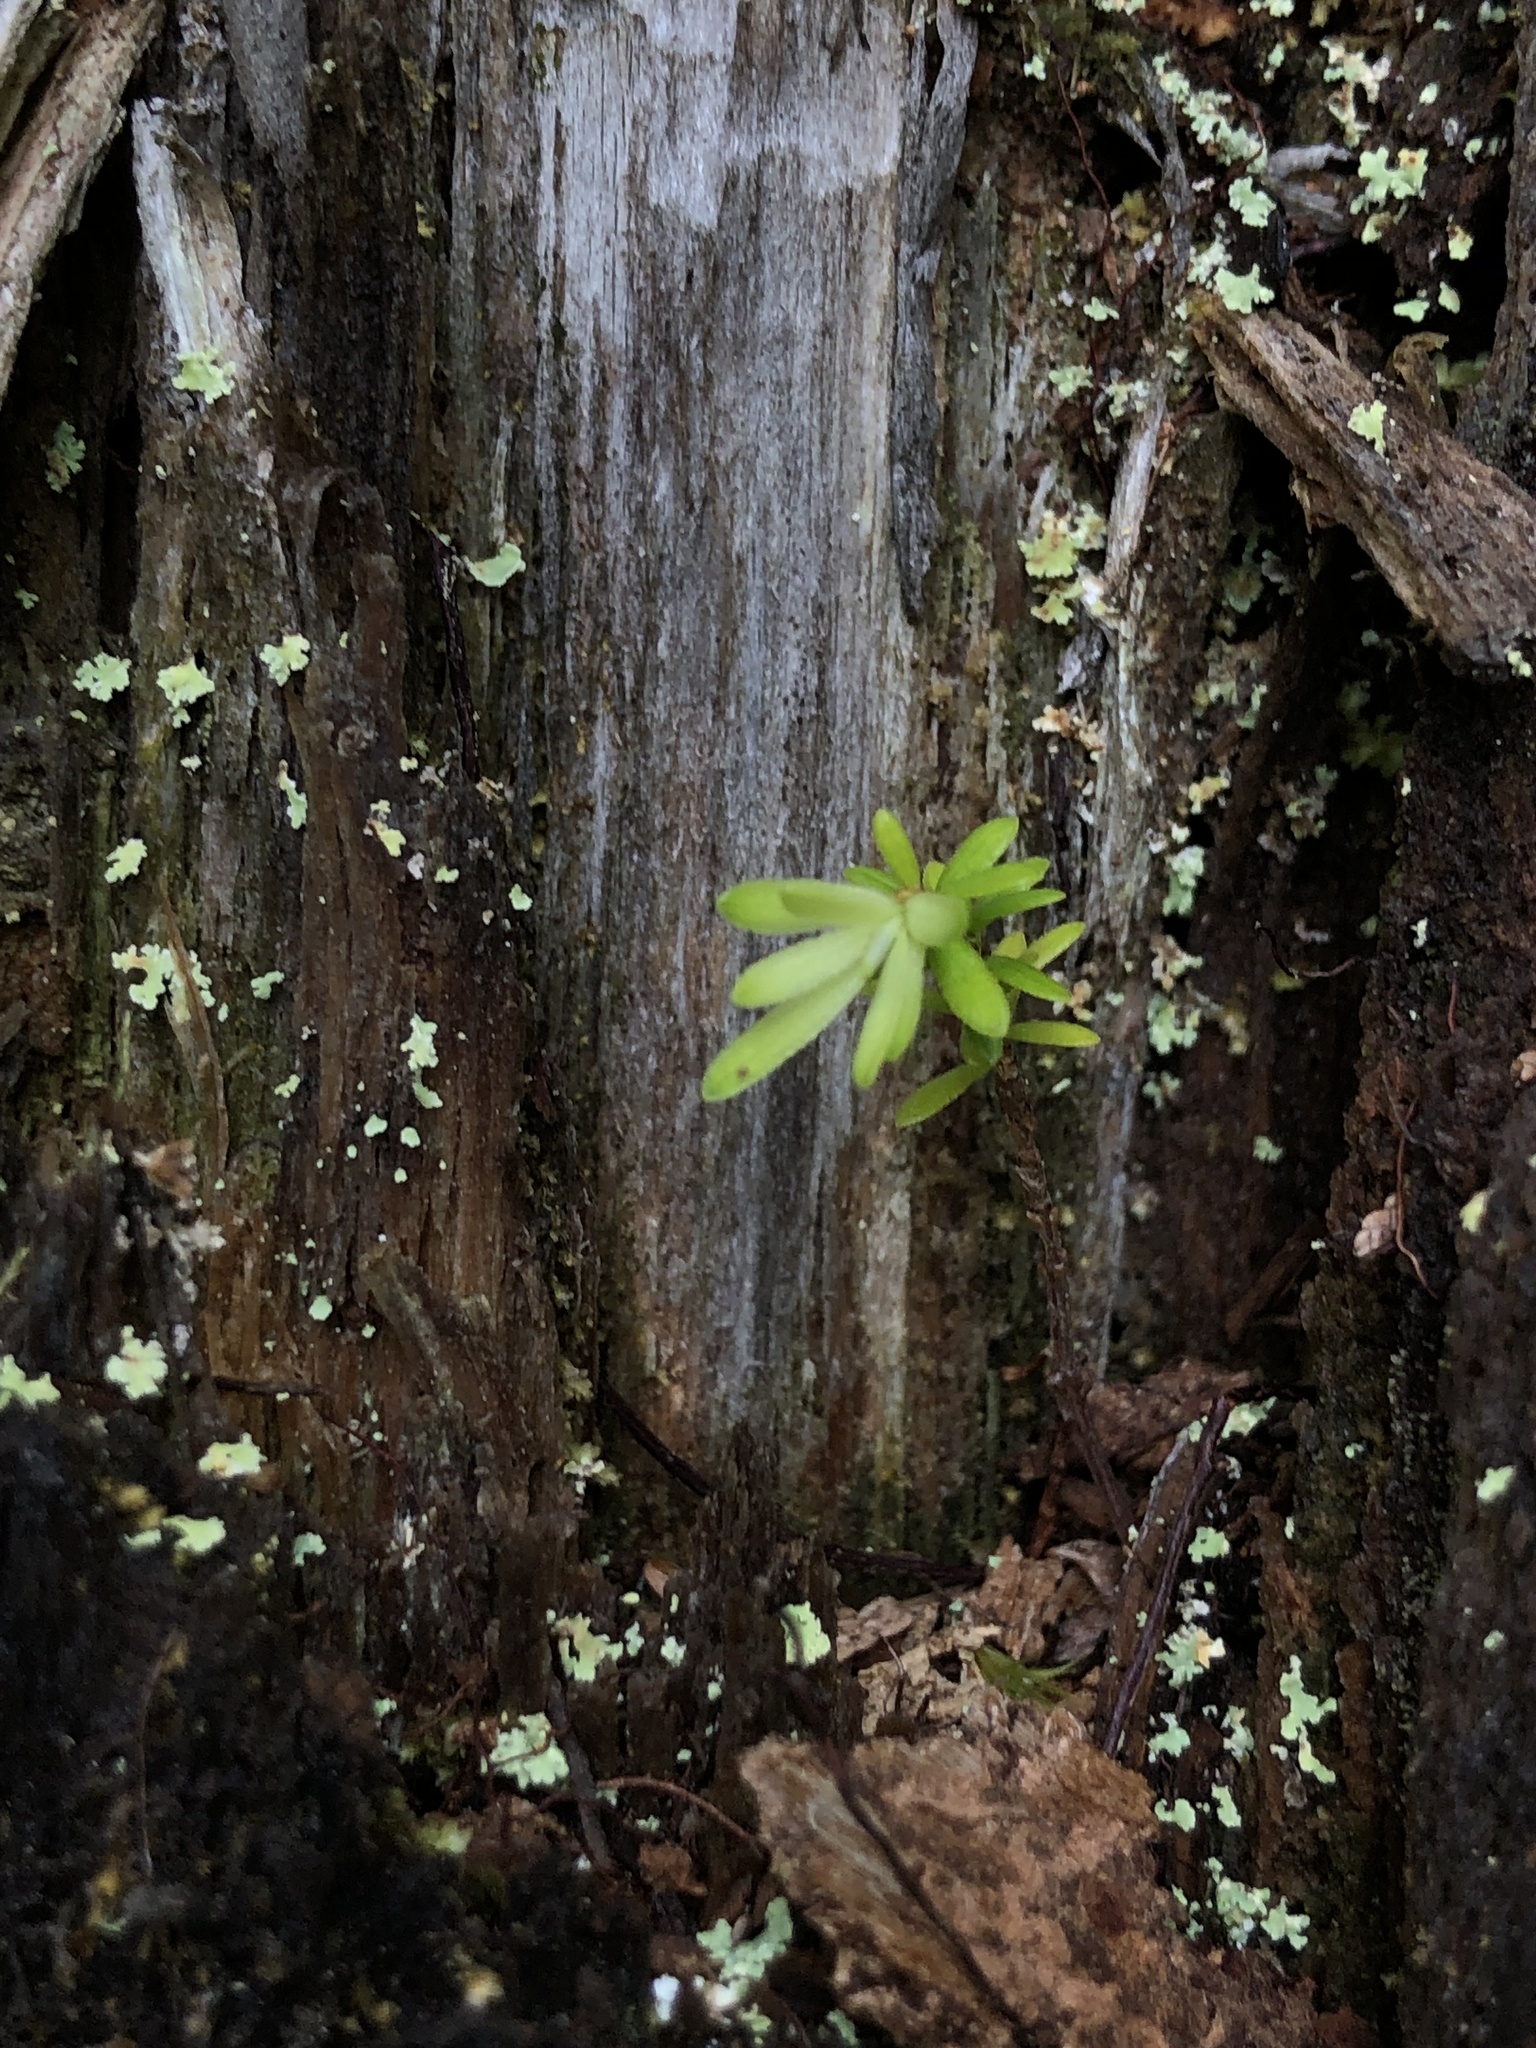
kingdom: Plantae
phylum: Tracheophyta
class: Pinopsida
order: Pinales
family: Pinaceae
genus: Tsuga
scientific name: Tsuga heterophylla
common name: Western hemlock
